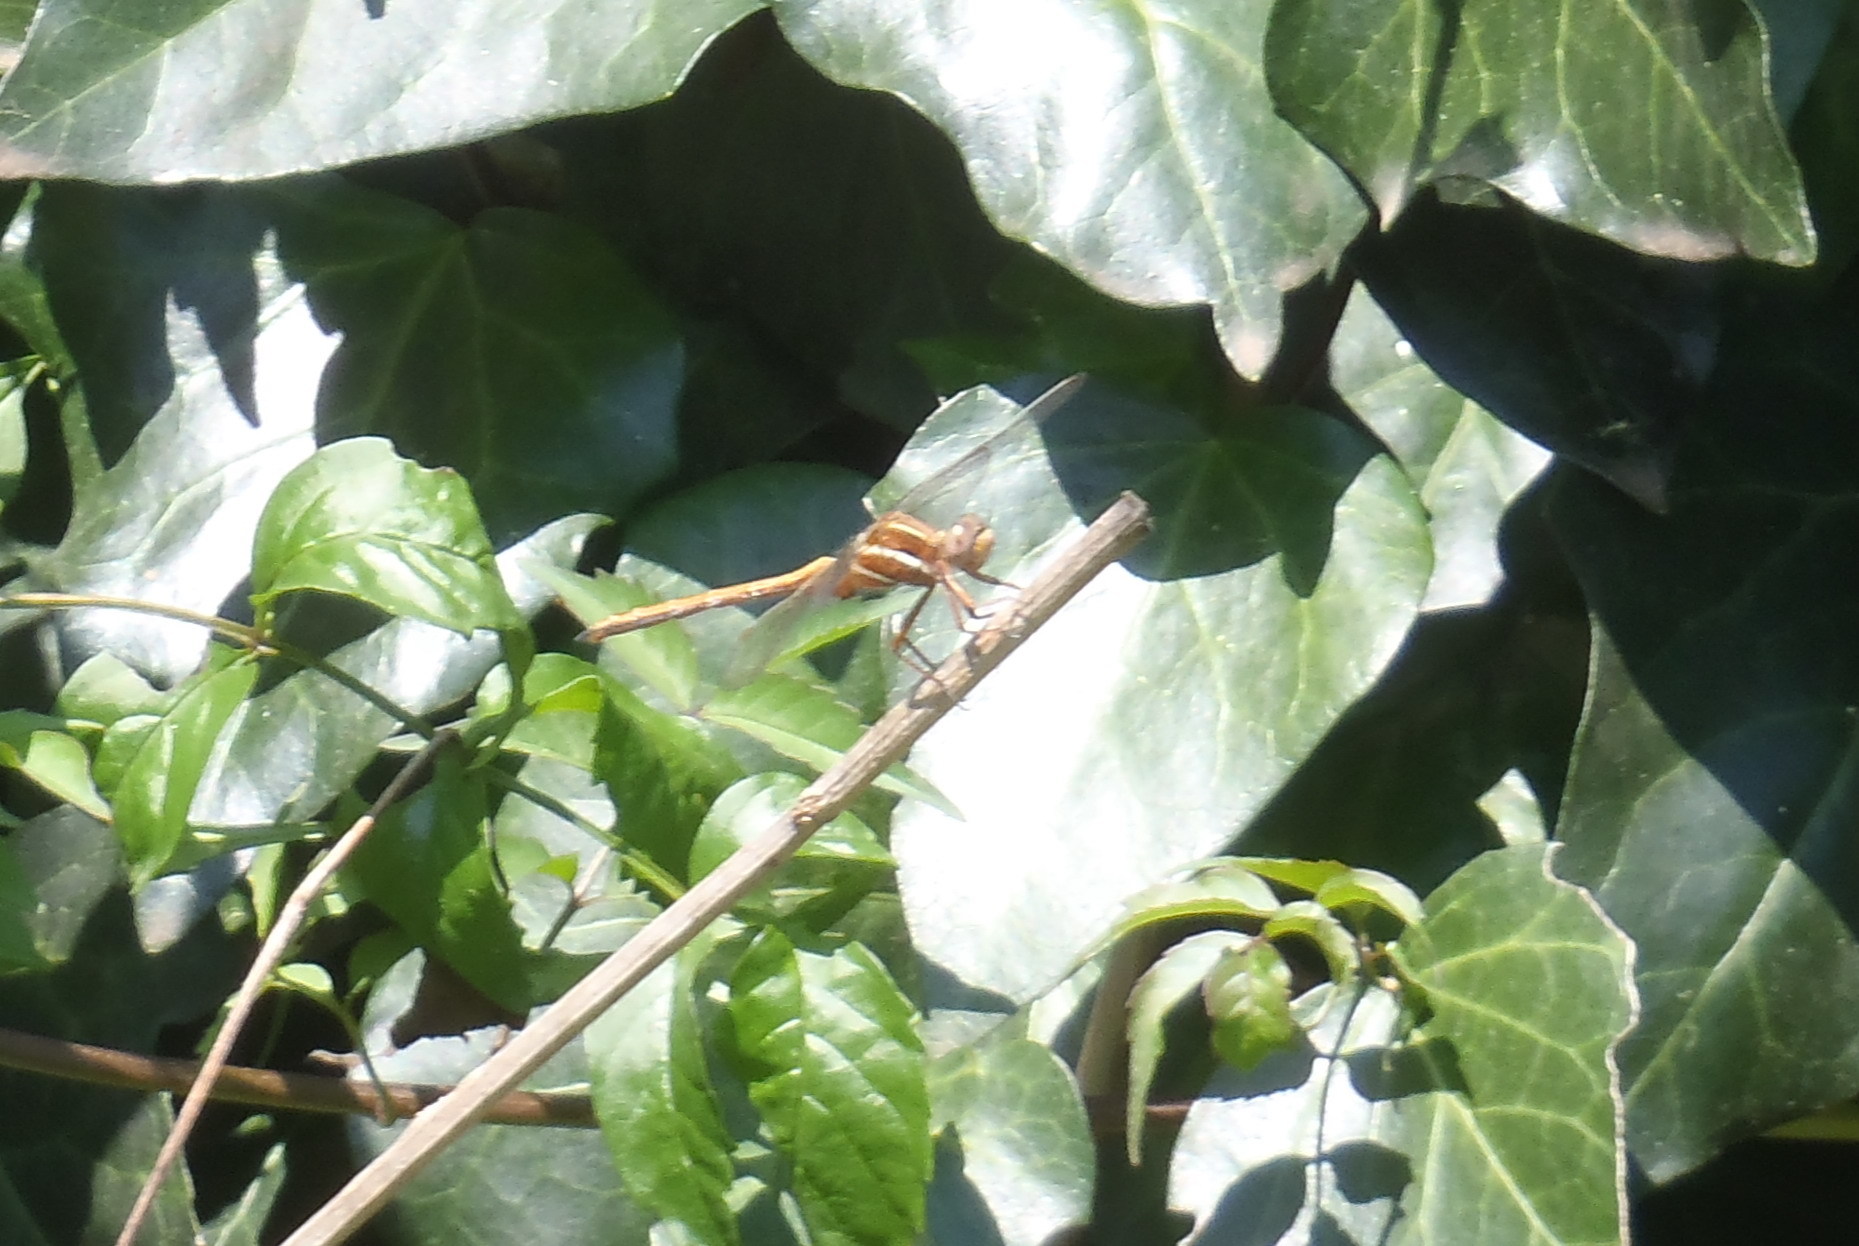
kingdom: Animalia
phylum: Arthropoda
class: Insecta
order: Odonata
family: Libellulidae
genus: Orthetrum
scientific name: Orthetrum caffrum
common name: Two-striped skimmer
